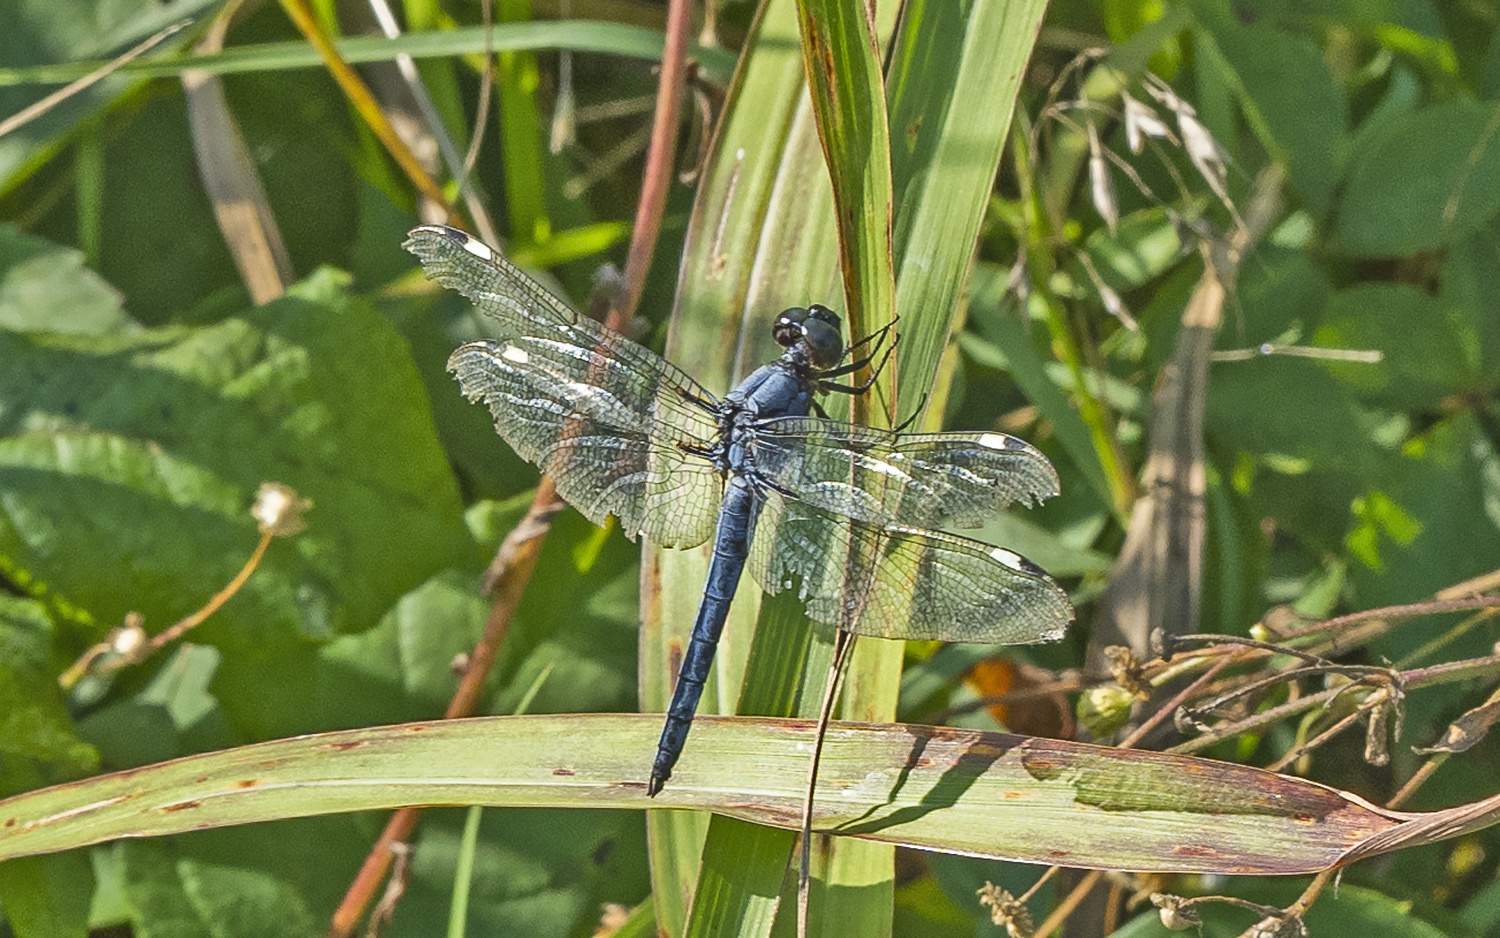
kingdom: Animalia
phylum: Arthropoda
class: Insecta
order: Odonata
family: Libellulidae
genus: Libellula
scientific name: Libellula cyanea
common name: Spangled skimmer
